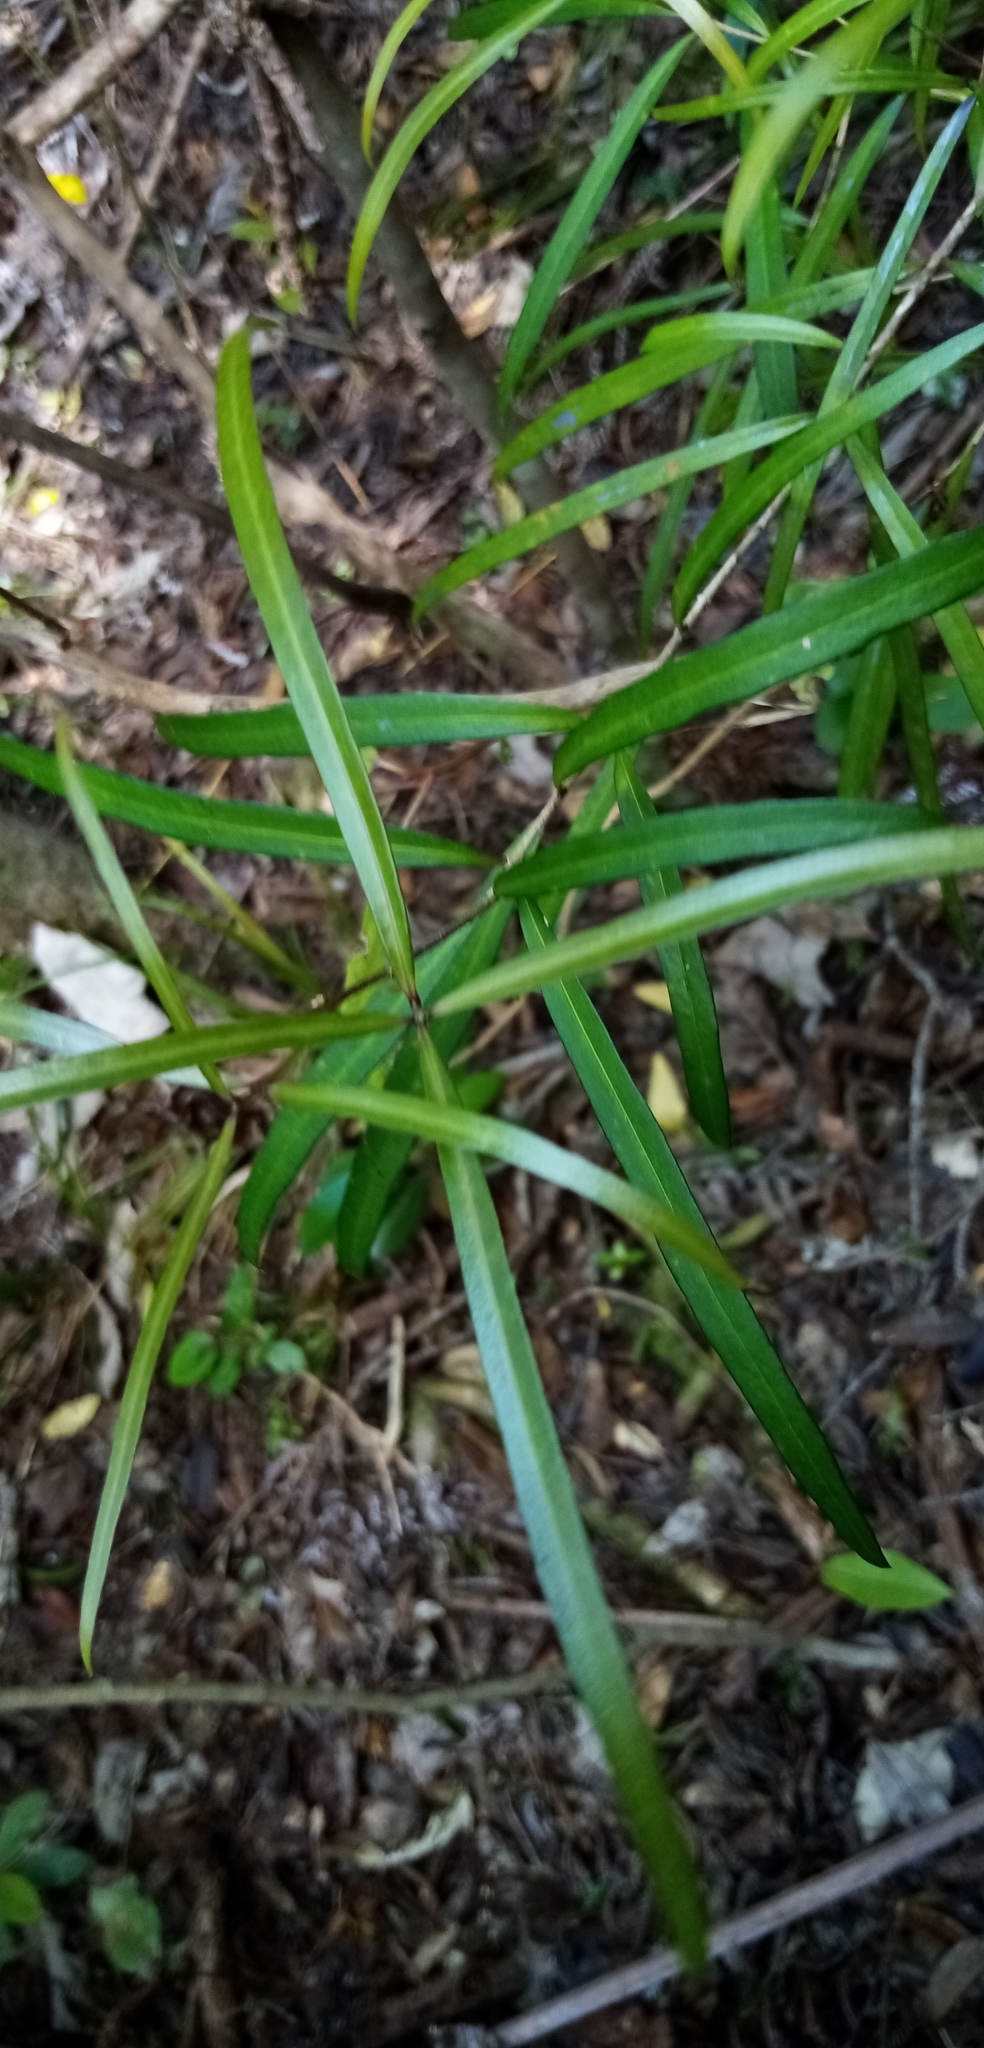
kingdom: Plantae
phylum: Tracheophyta
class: Magnoliopsida
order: Lamiales
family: Oleaceae
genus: Nestegis
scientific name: Nestegis lanceolata
